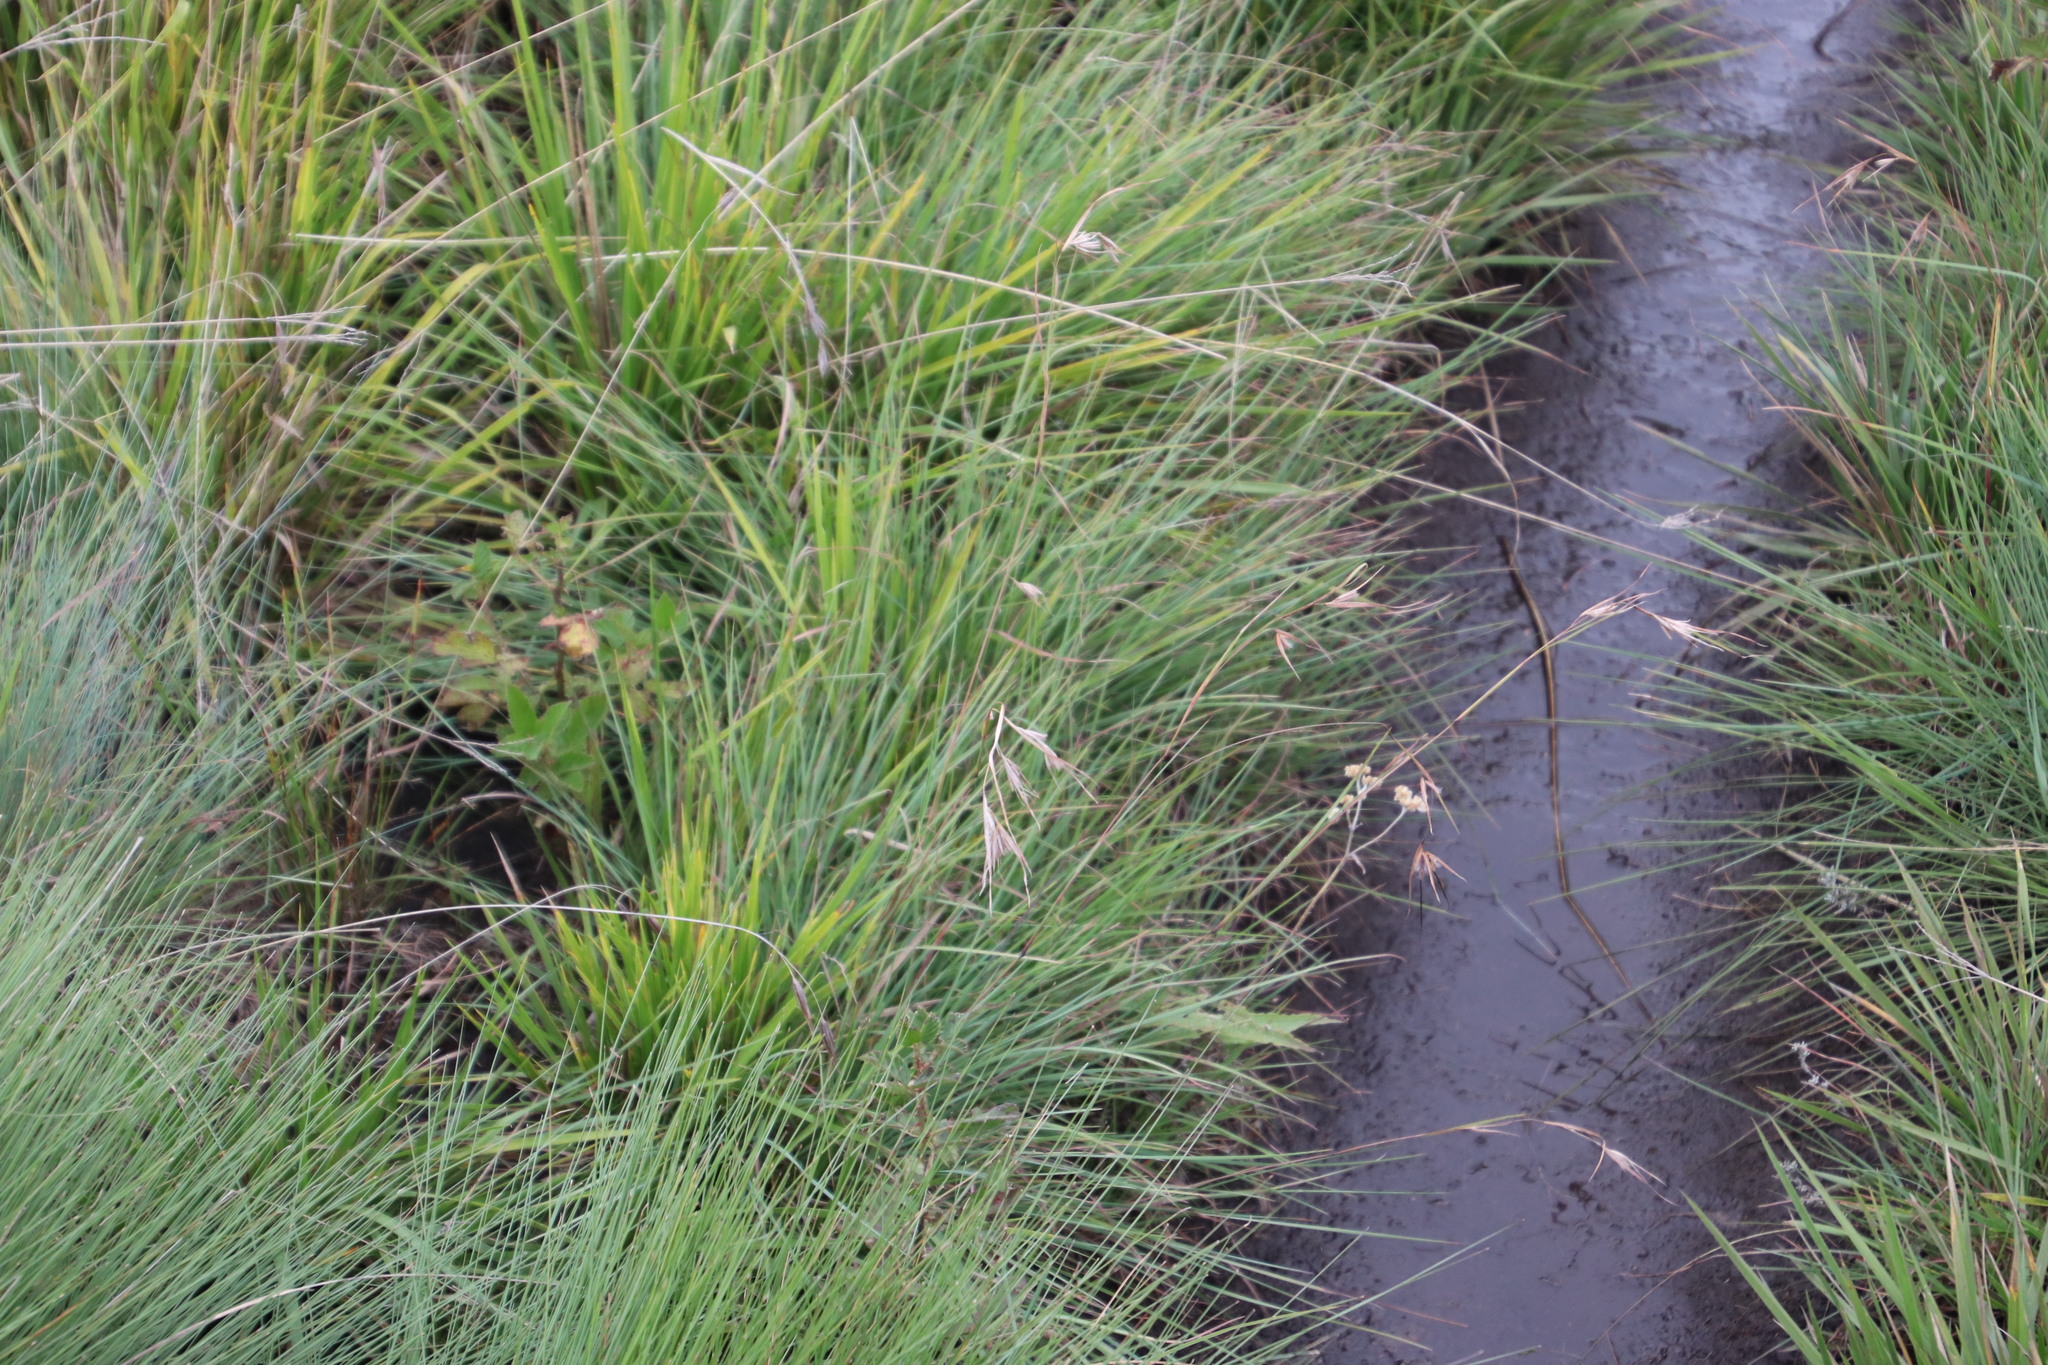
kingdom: Plantae
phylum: Tracheophyta
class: Liliopsida
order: Poales
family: Poaceae
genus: Themeda
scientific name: Themeda triandra
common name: Kangaroo grass
